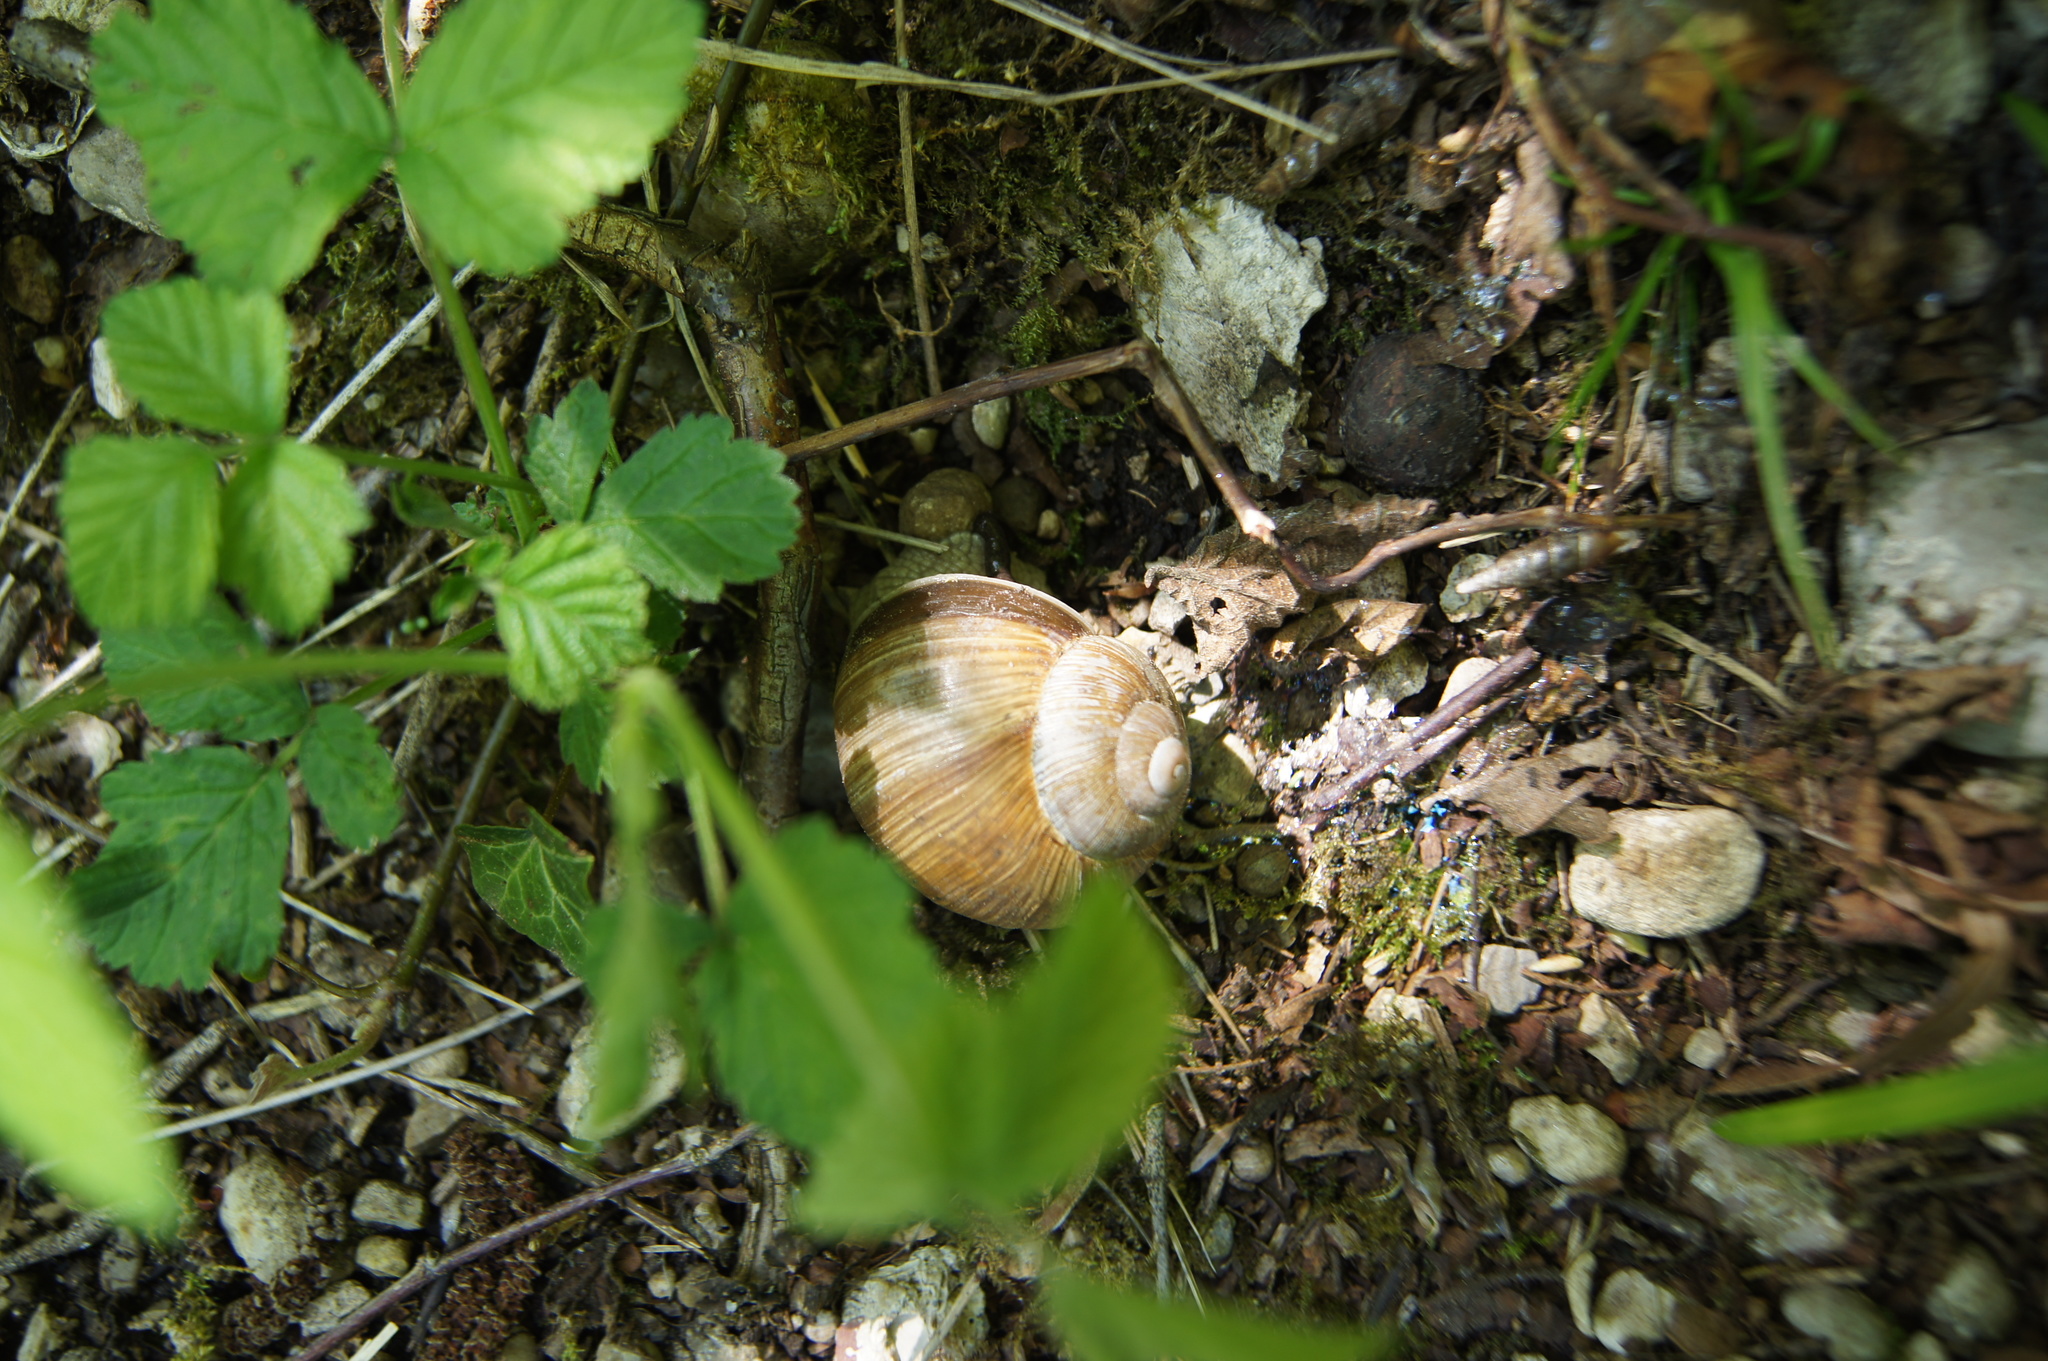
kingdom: Animalia
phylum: Mollusca
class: Gastropoda
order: Stylommatophora
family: Helicidae
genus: Helix
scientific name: Helix pomatia
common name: Roman snail
